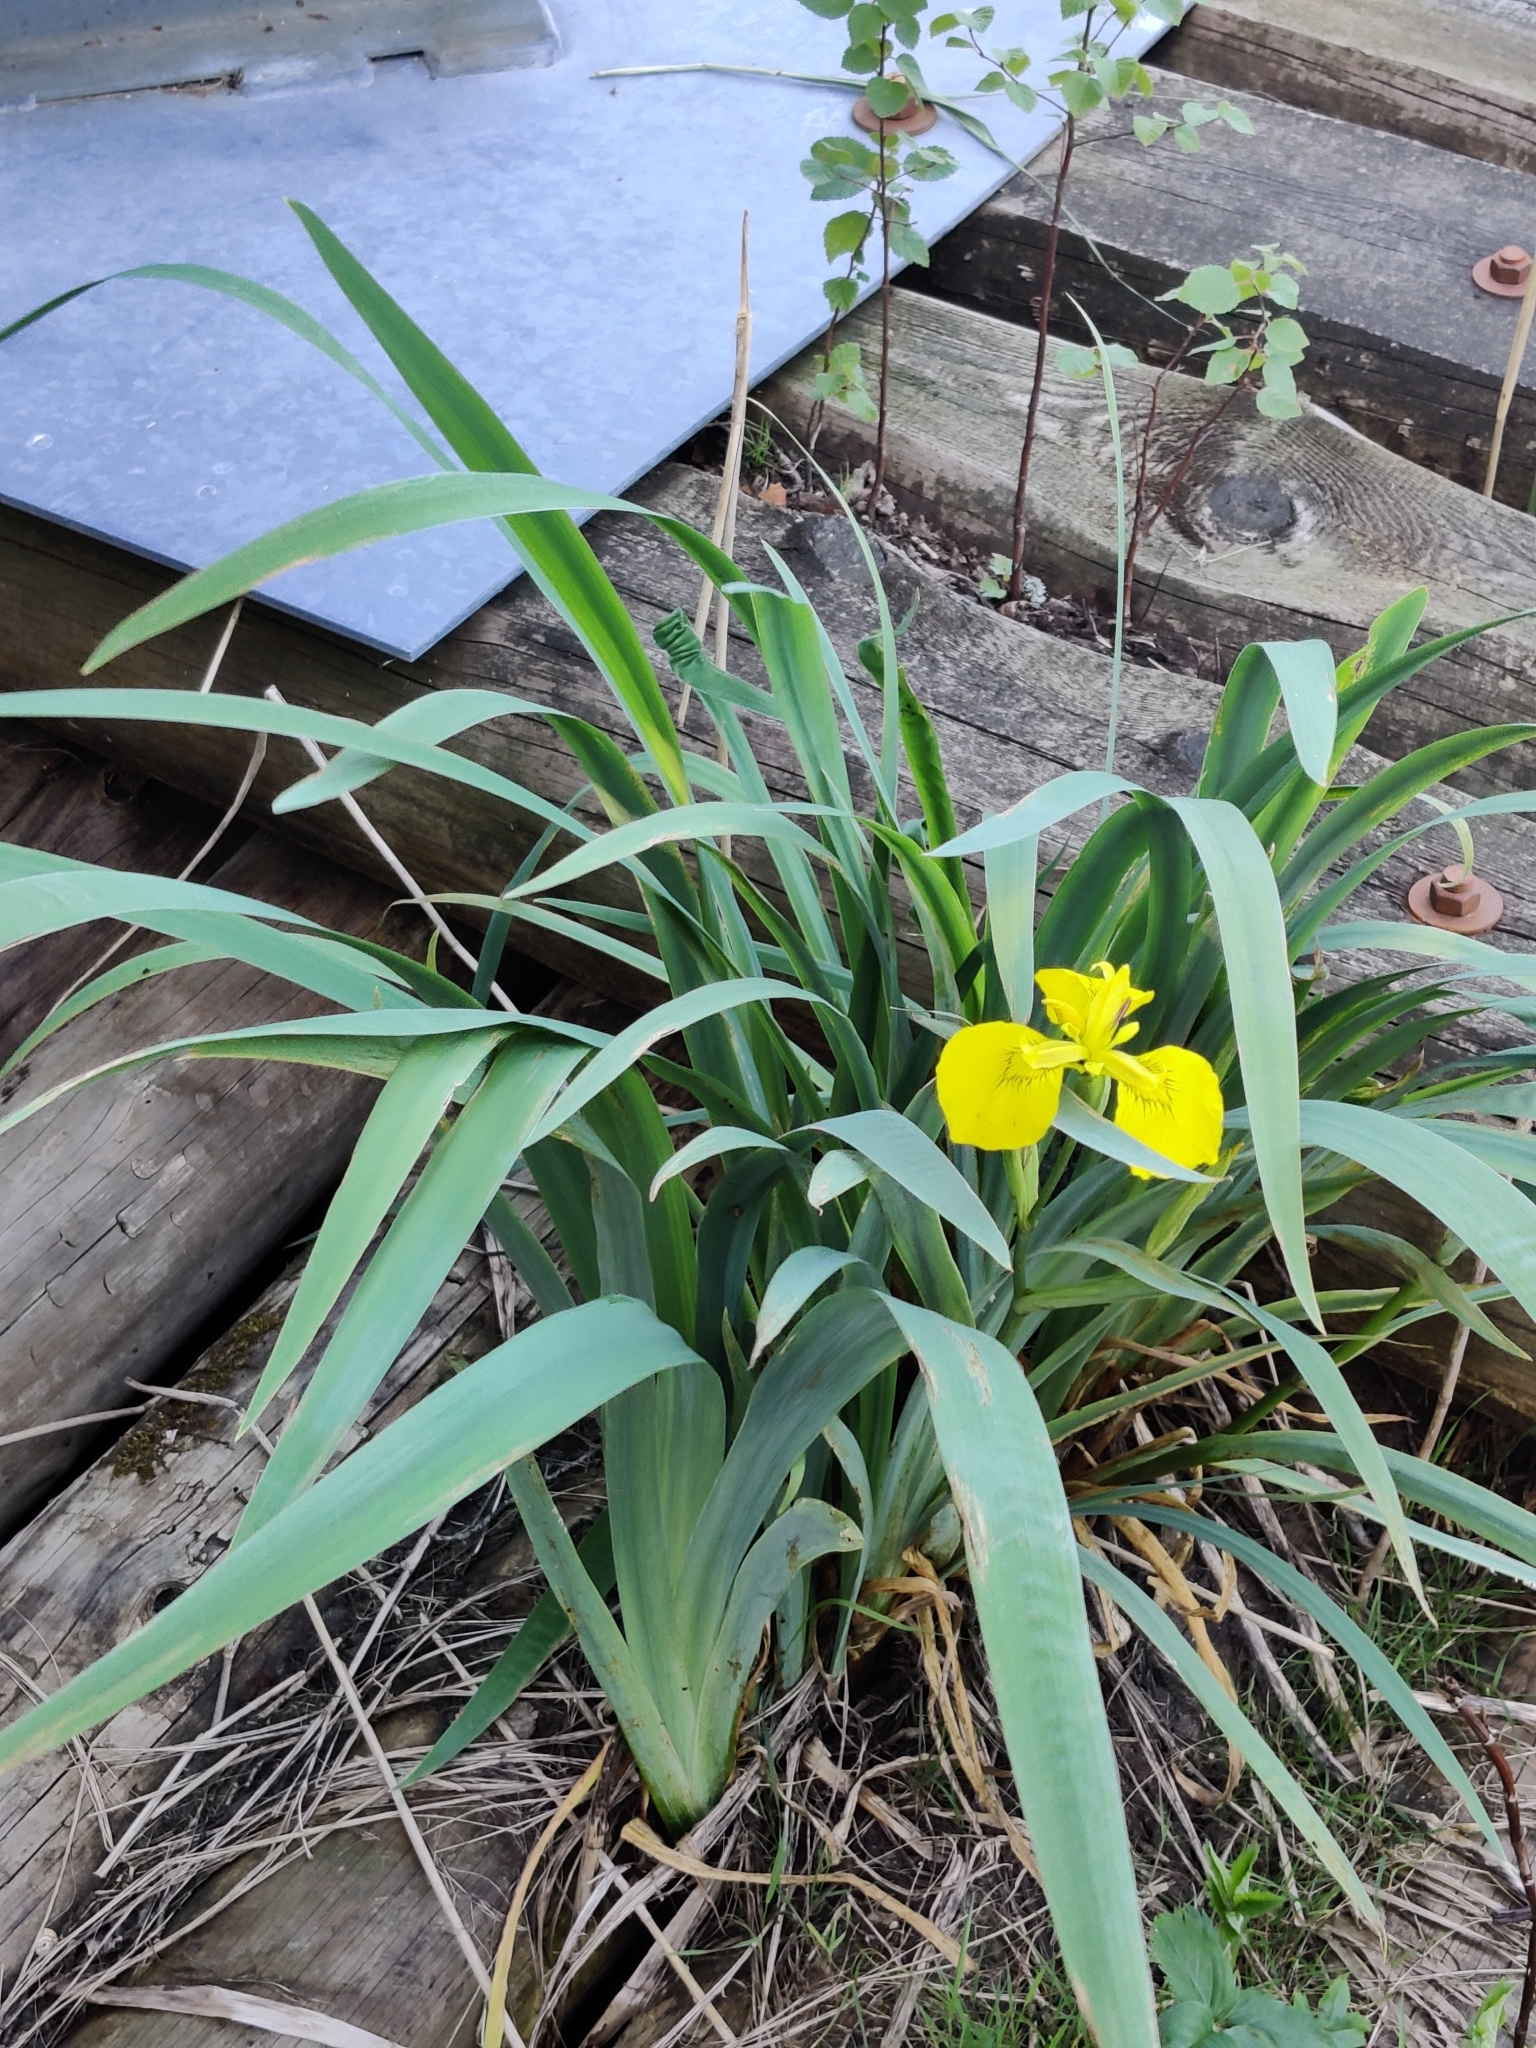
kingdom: Plantae
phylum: Tracheophyta
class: Liliopsida
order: Asparagales
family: Iridaceae
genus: Iris
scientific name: Iris pseudacorus
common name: Yellow flag
